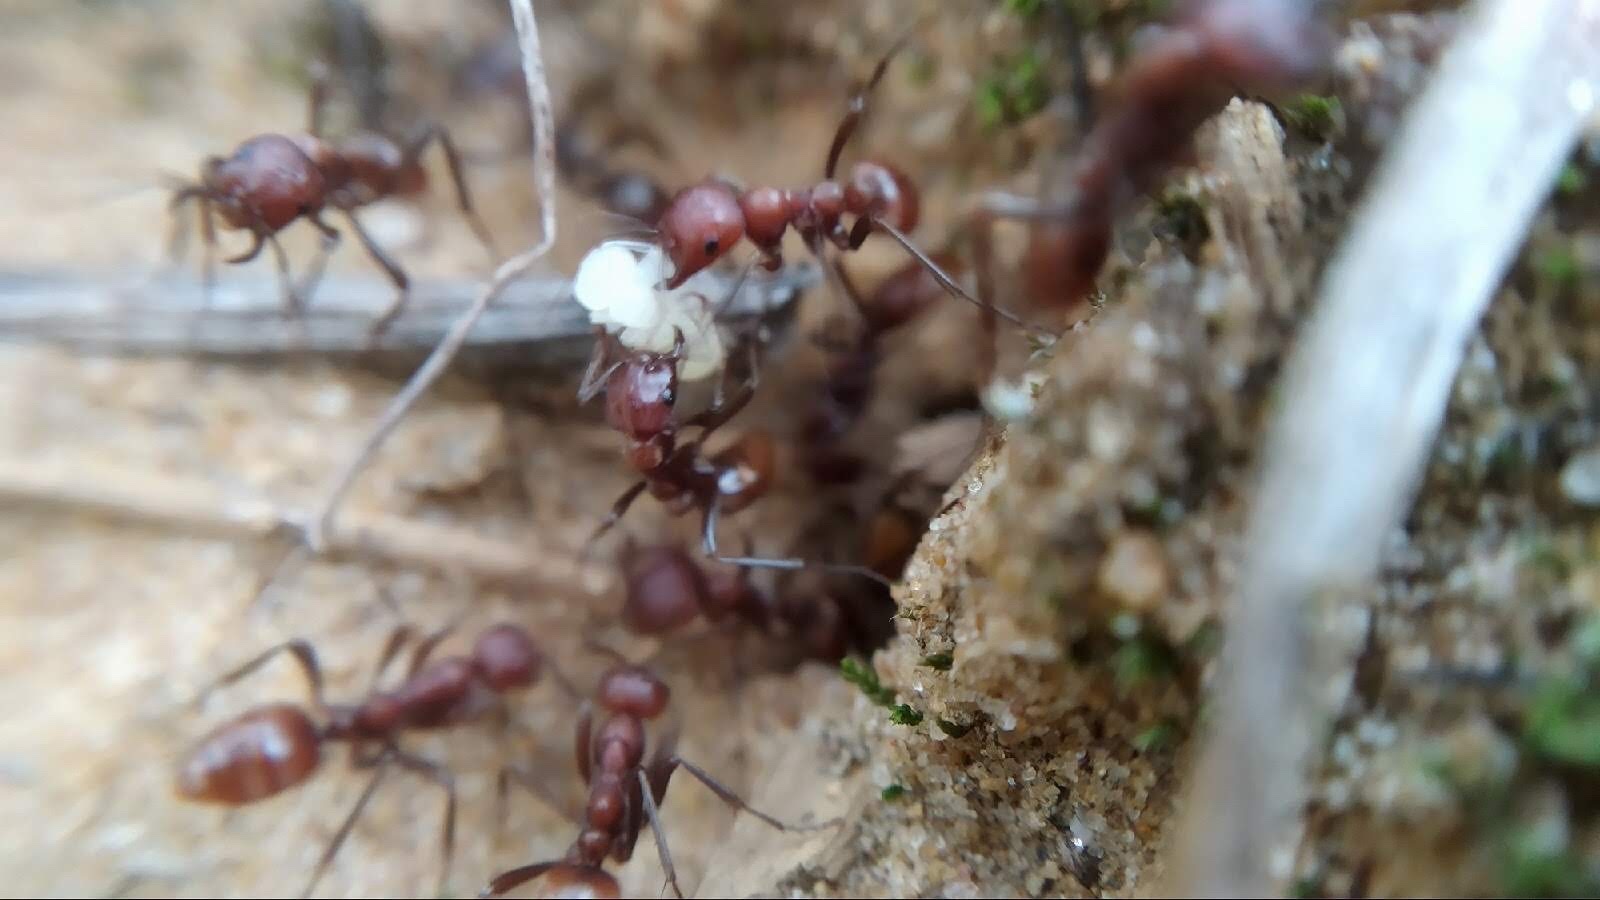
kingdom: Animalia
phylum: Arthropoda
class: Insecta
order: Hymenoptera
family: Formicidae
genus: Polyergus
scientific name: Polyergus rufescens
